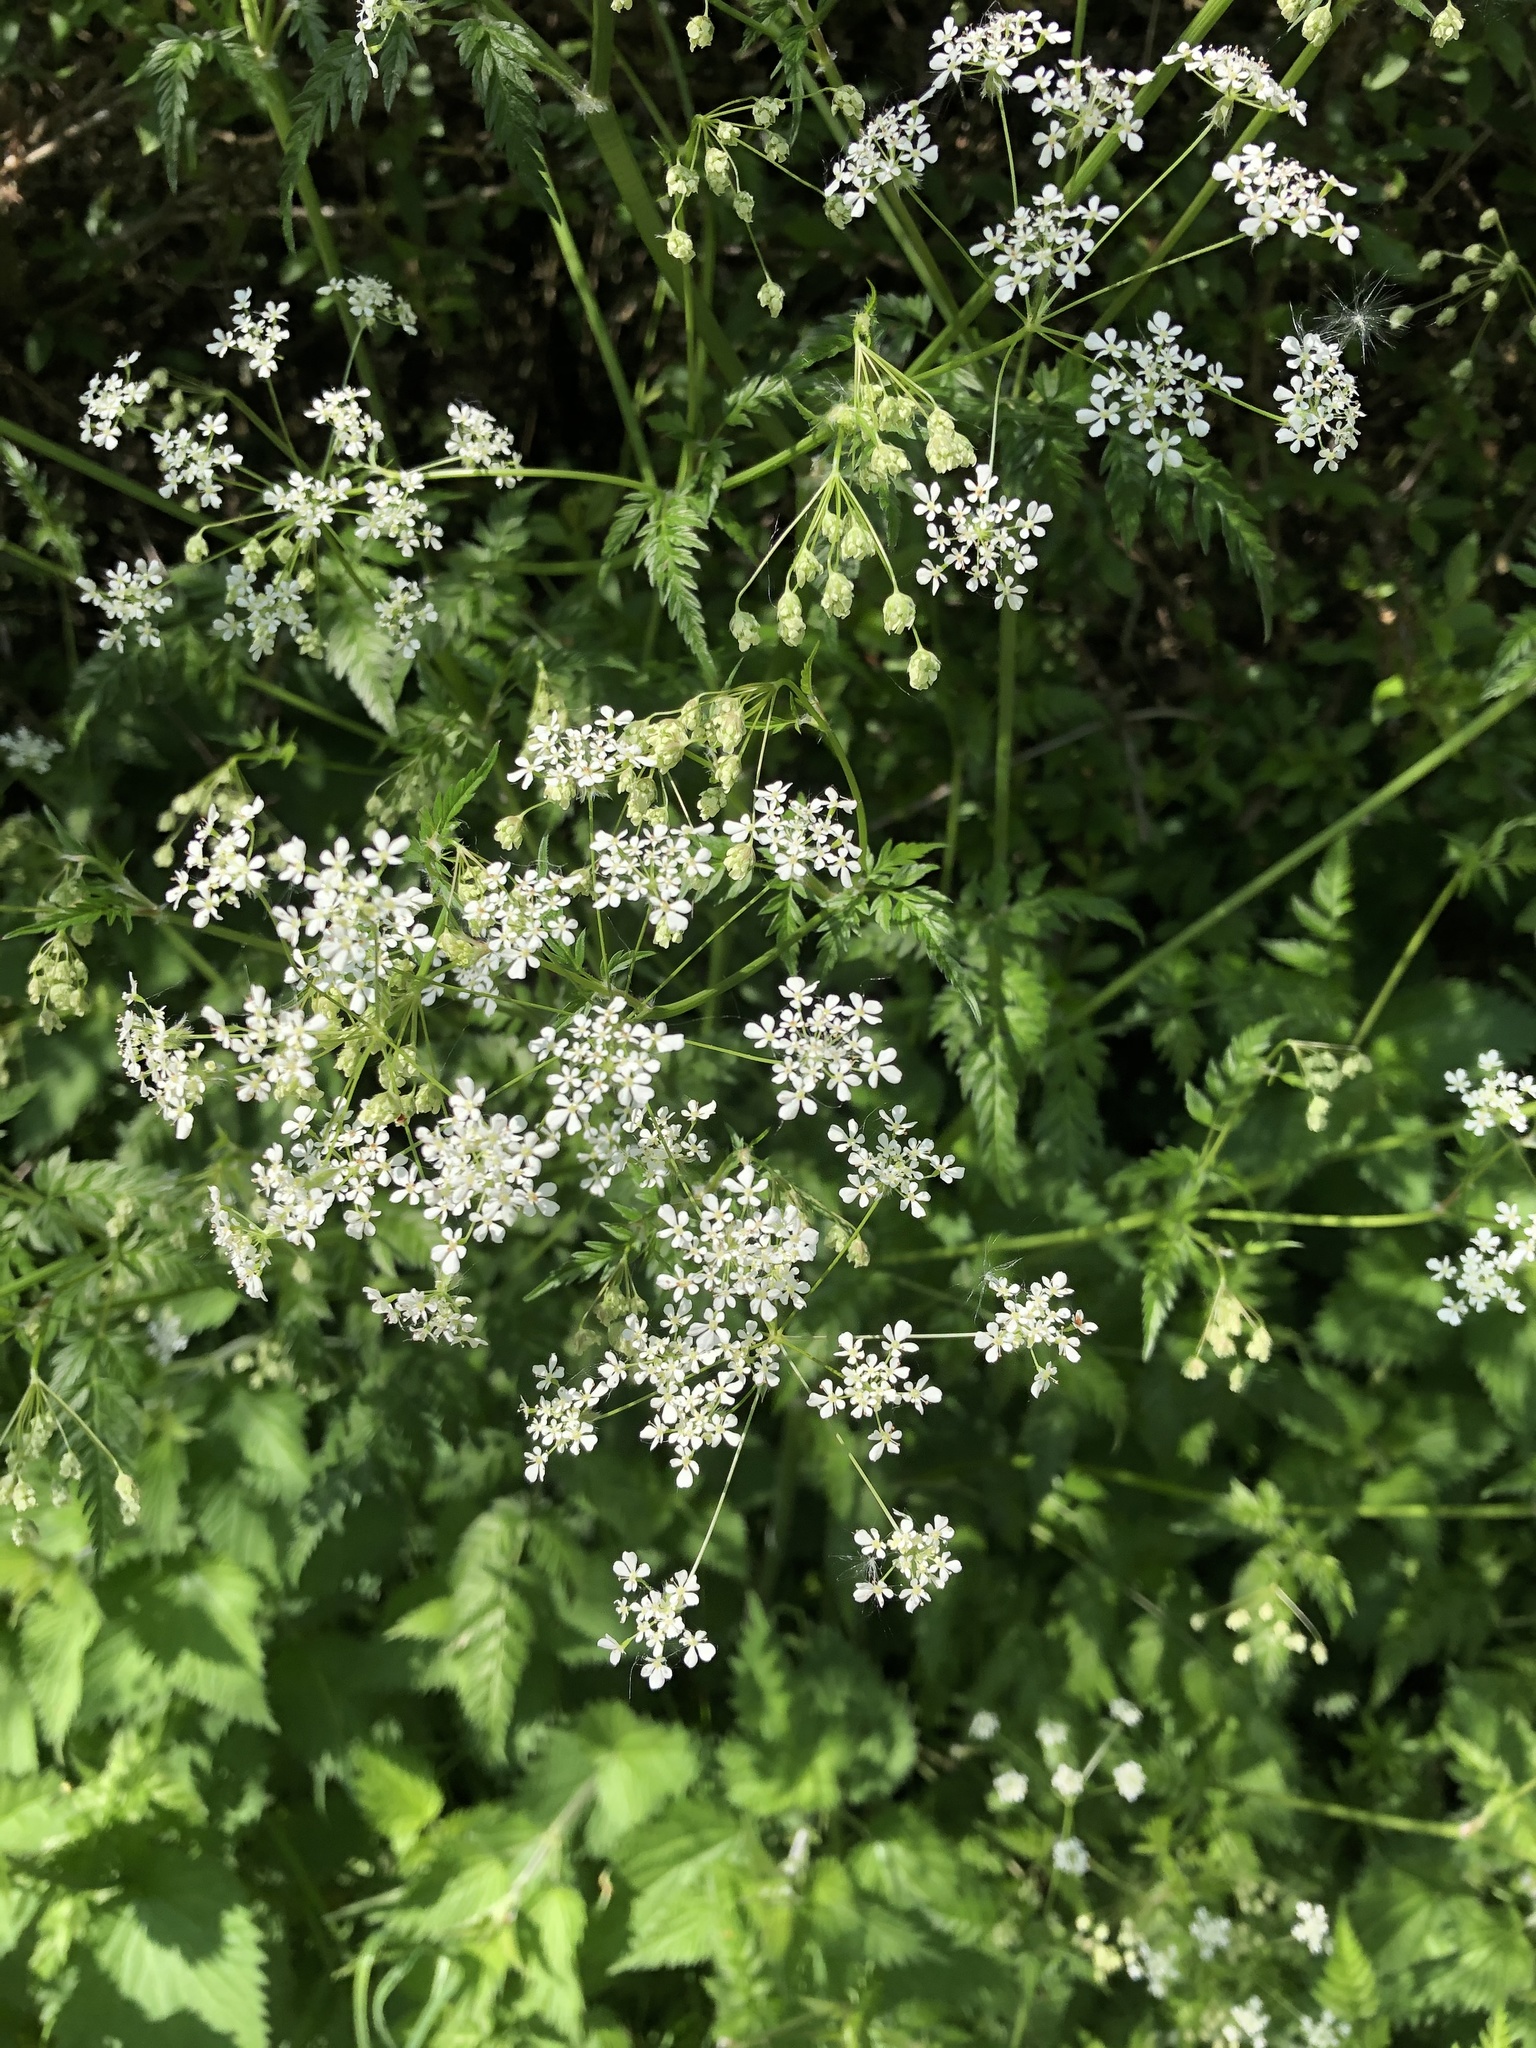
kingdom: Plantae
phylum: Tracheophyta
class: Magnoliopsida
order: Apiales
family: Apiaceae
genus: Anthriscus
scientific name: Anthriscus sylvestris
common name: Cow parsley
